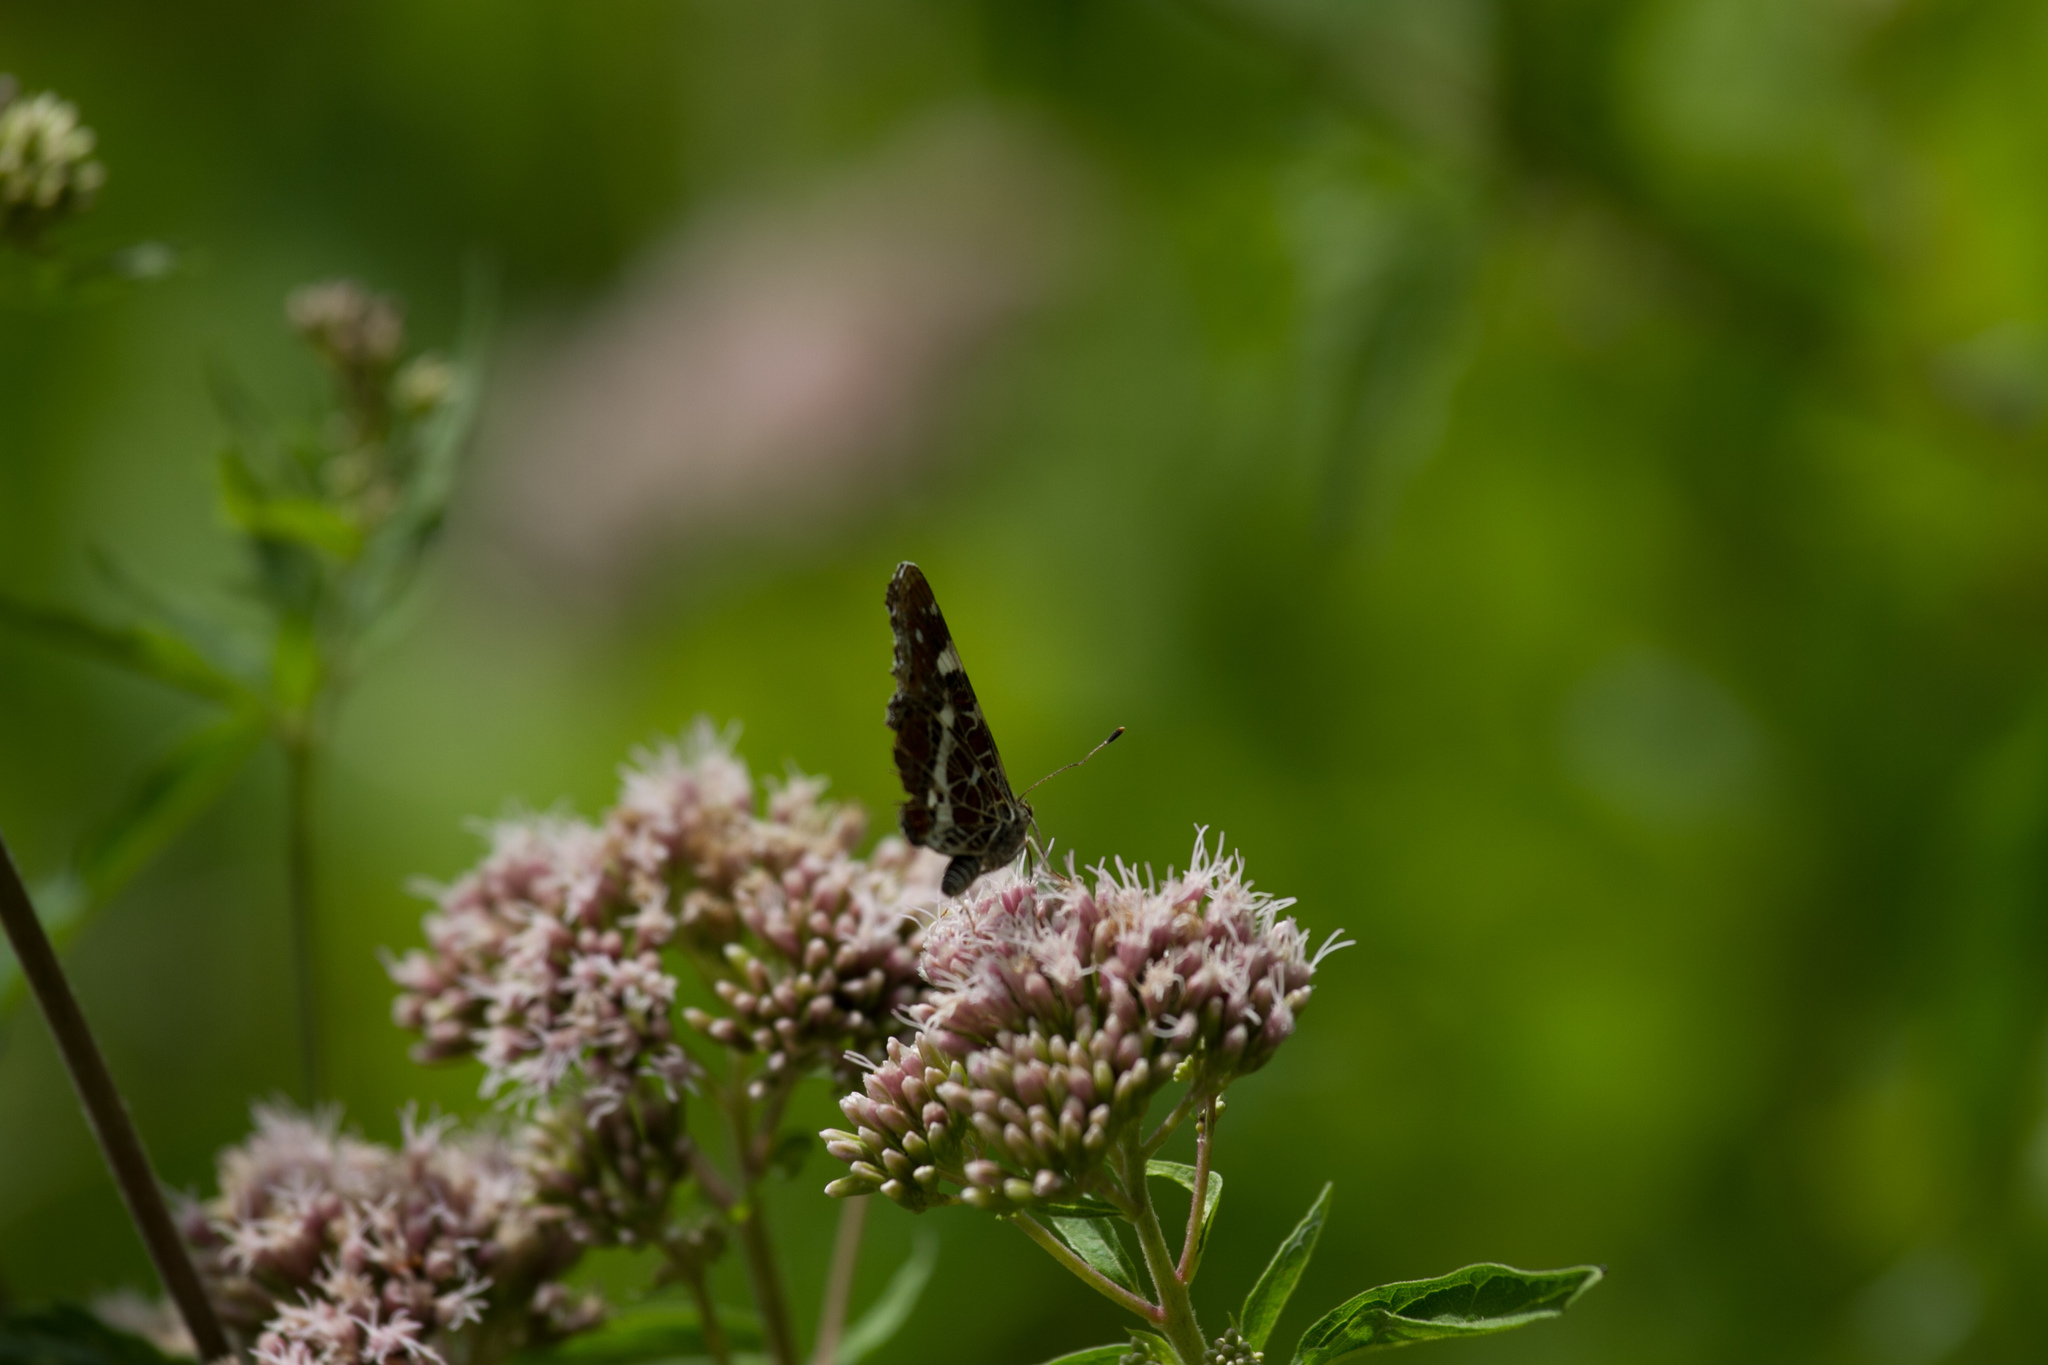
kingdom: Animalia
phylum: Arthropoda
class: Insecta
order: Lepidoptera
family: Nymphalidae
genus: Araschnia
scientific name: Araschnia levana
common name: Map butterfly
